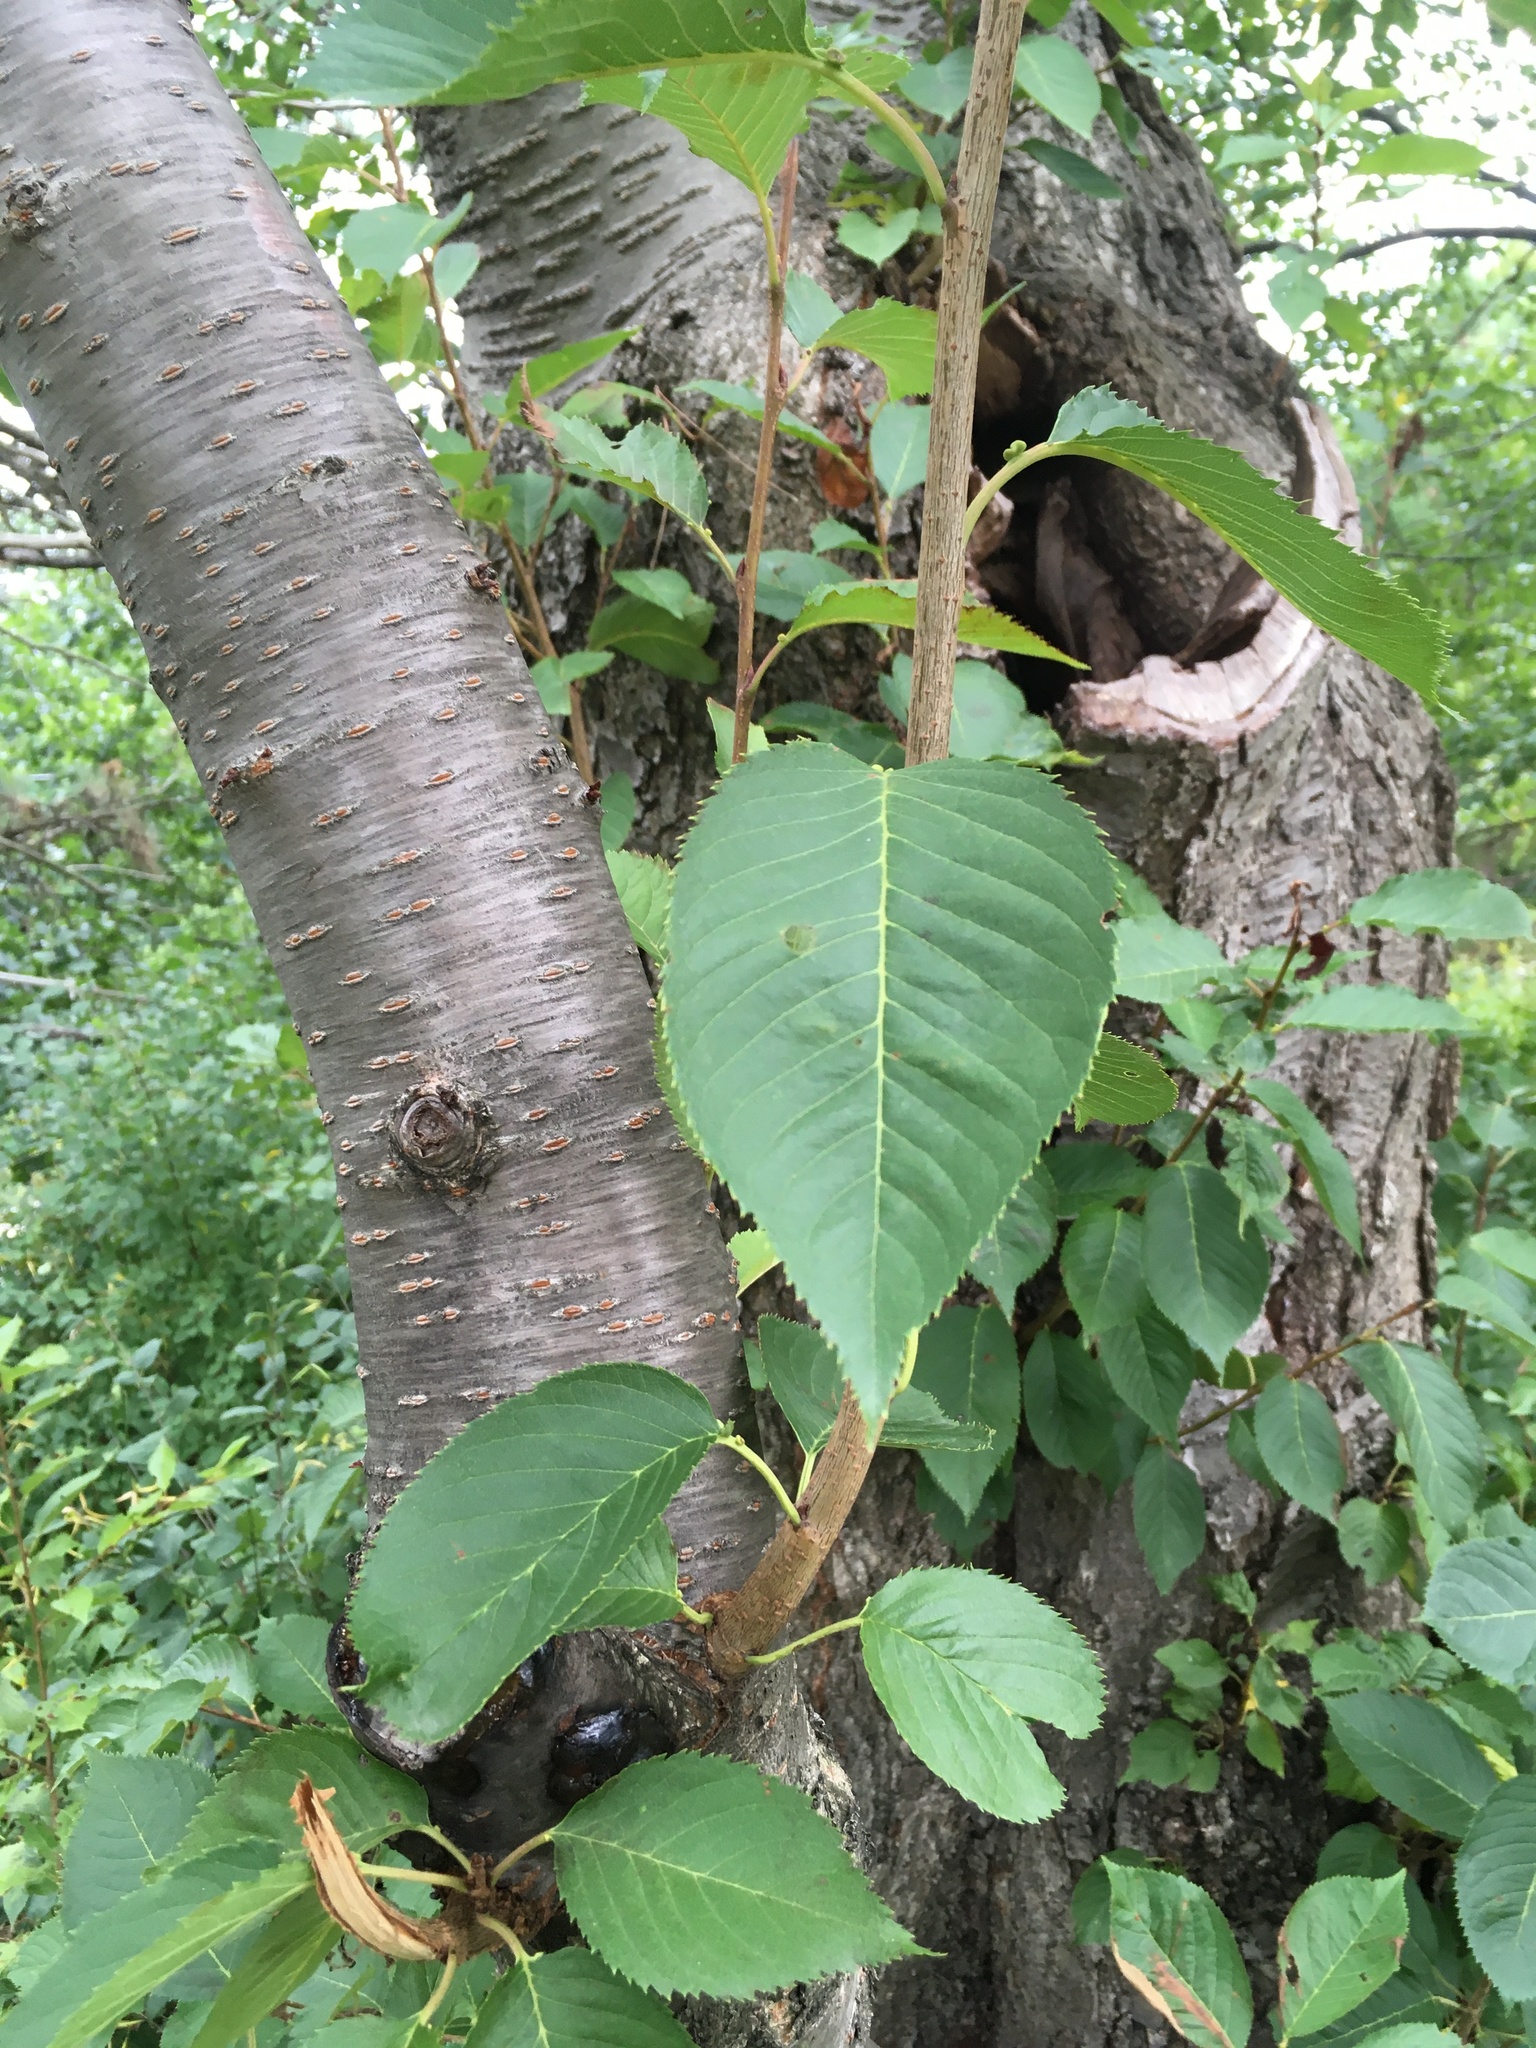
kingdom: Plantae
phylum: Tracheophyta
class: Magnoliopsida
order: Rosales
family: Rosaceae
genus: Prunus
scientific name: Prunus avium
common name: Sweet cherry
